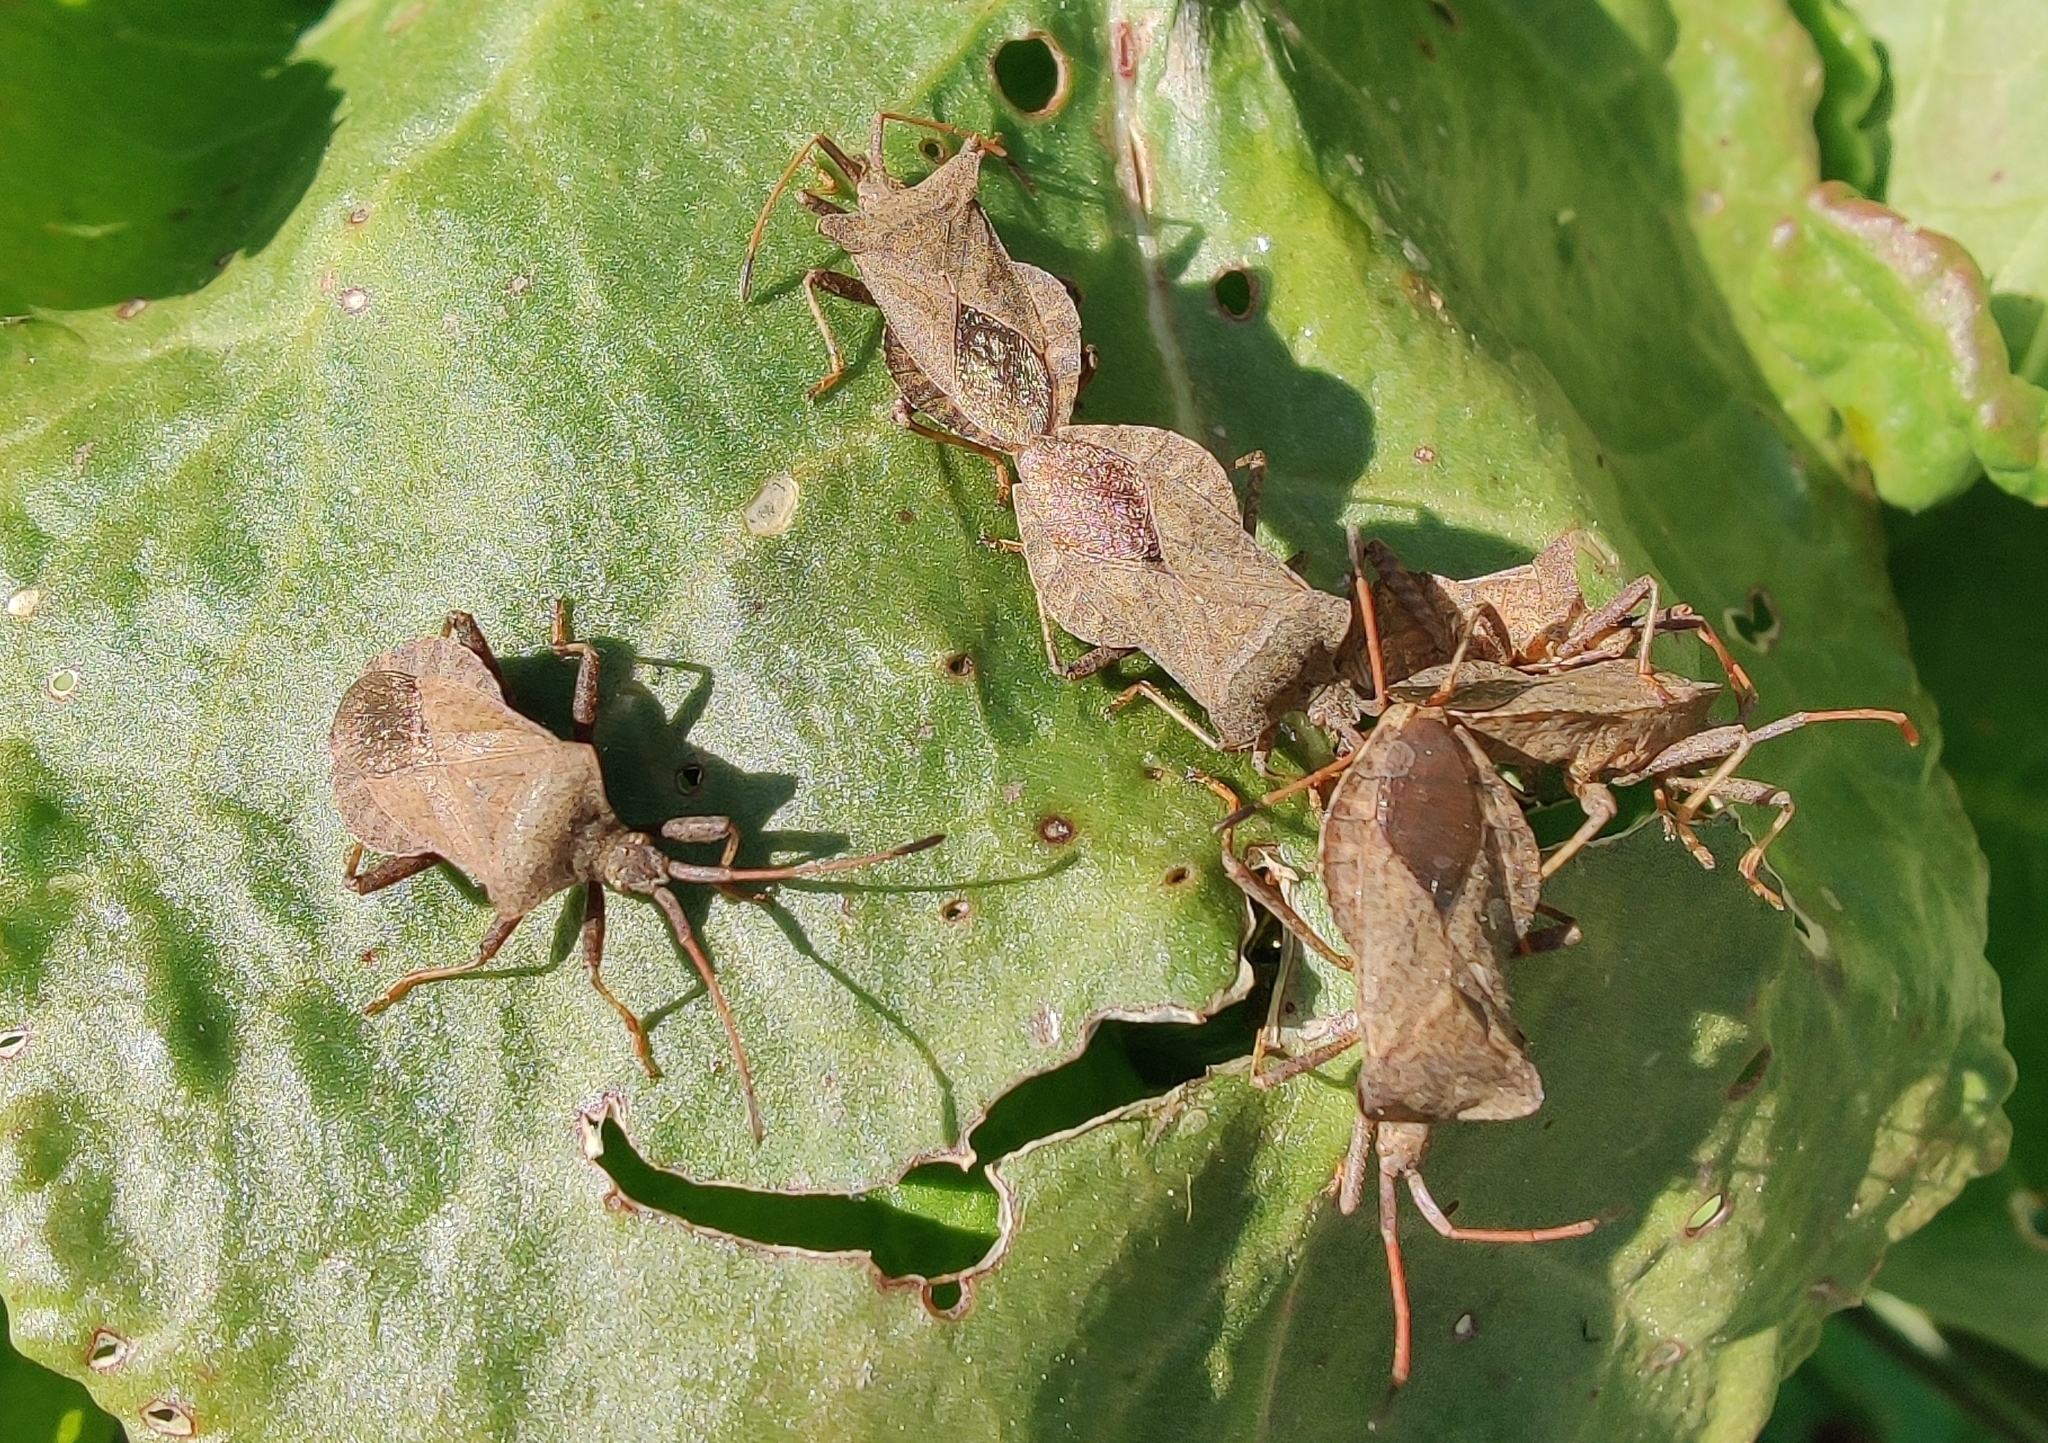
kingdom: Animalia
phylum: Arthropoda
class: Insecta
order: Hemiptera
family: Coreidae
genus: Coreus
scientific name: Coreus marginatus
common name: Dock bug
